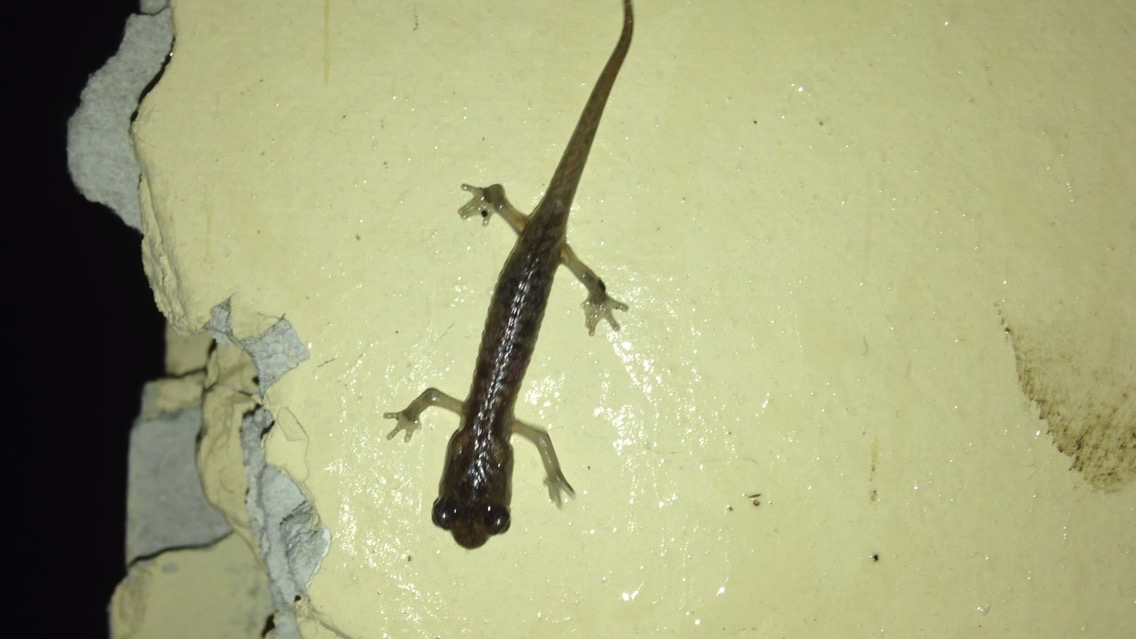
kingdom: Animalia
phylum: Chordata
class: Amphibia
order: Caudata
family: Plethodontidae
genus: Aneides
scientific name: Aneides lugubris
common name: Arboreal salamander
